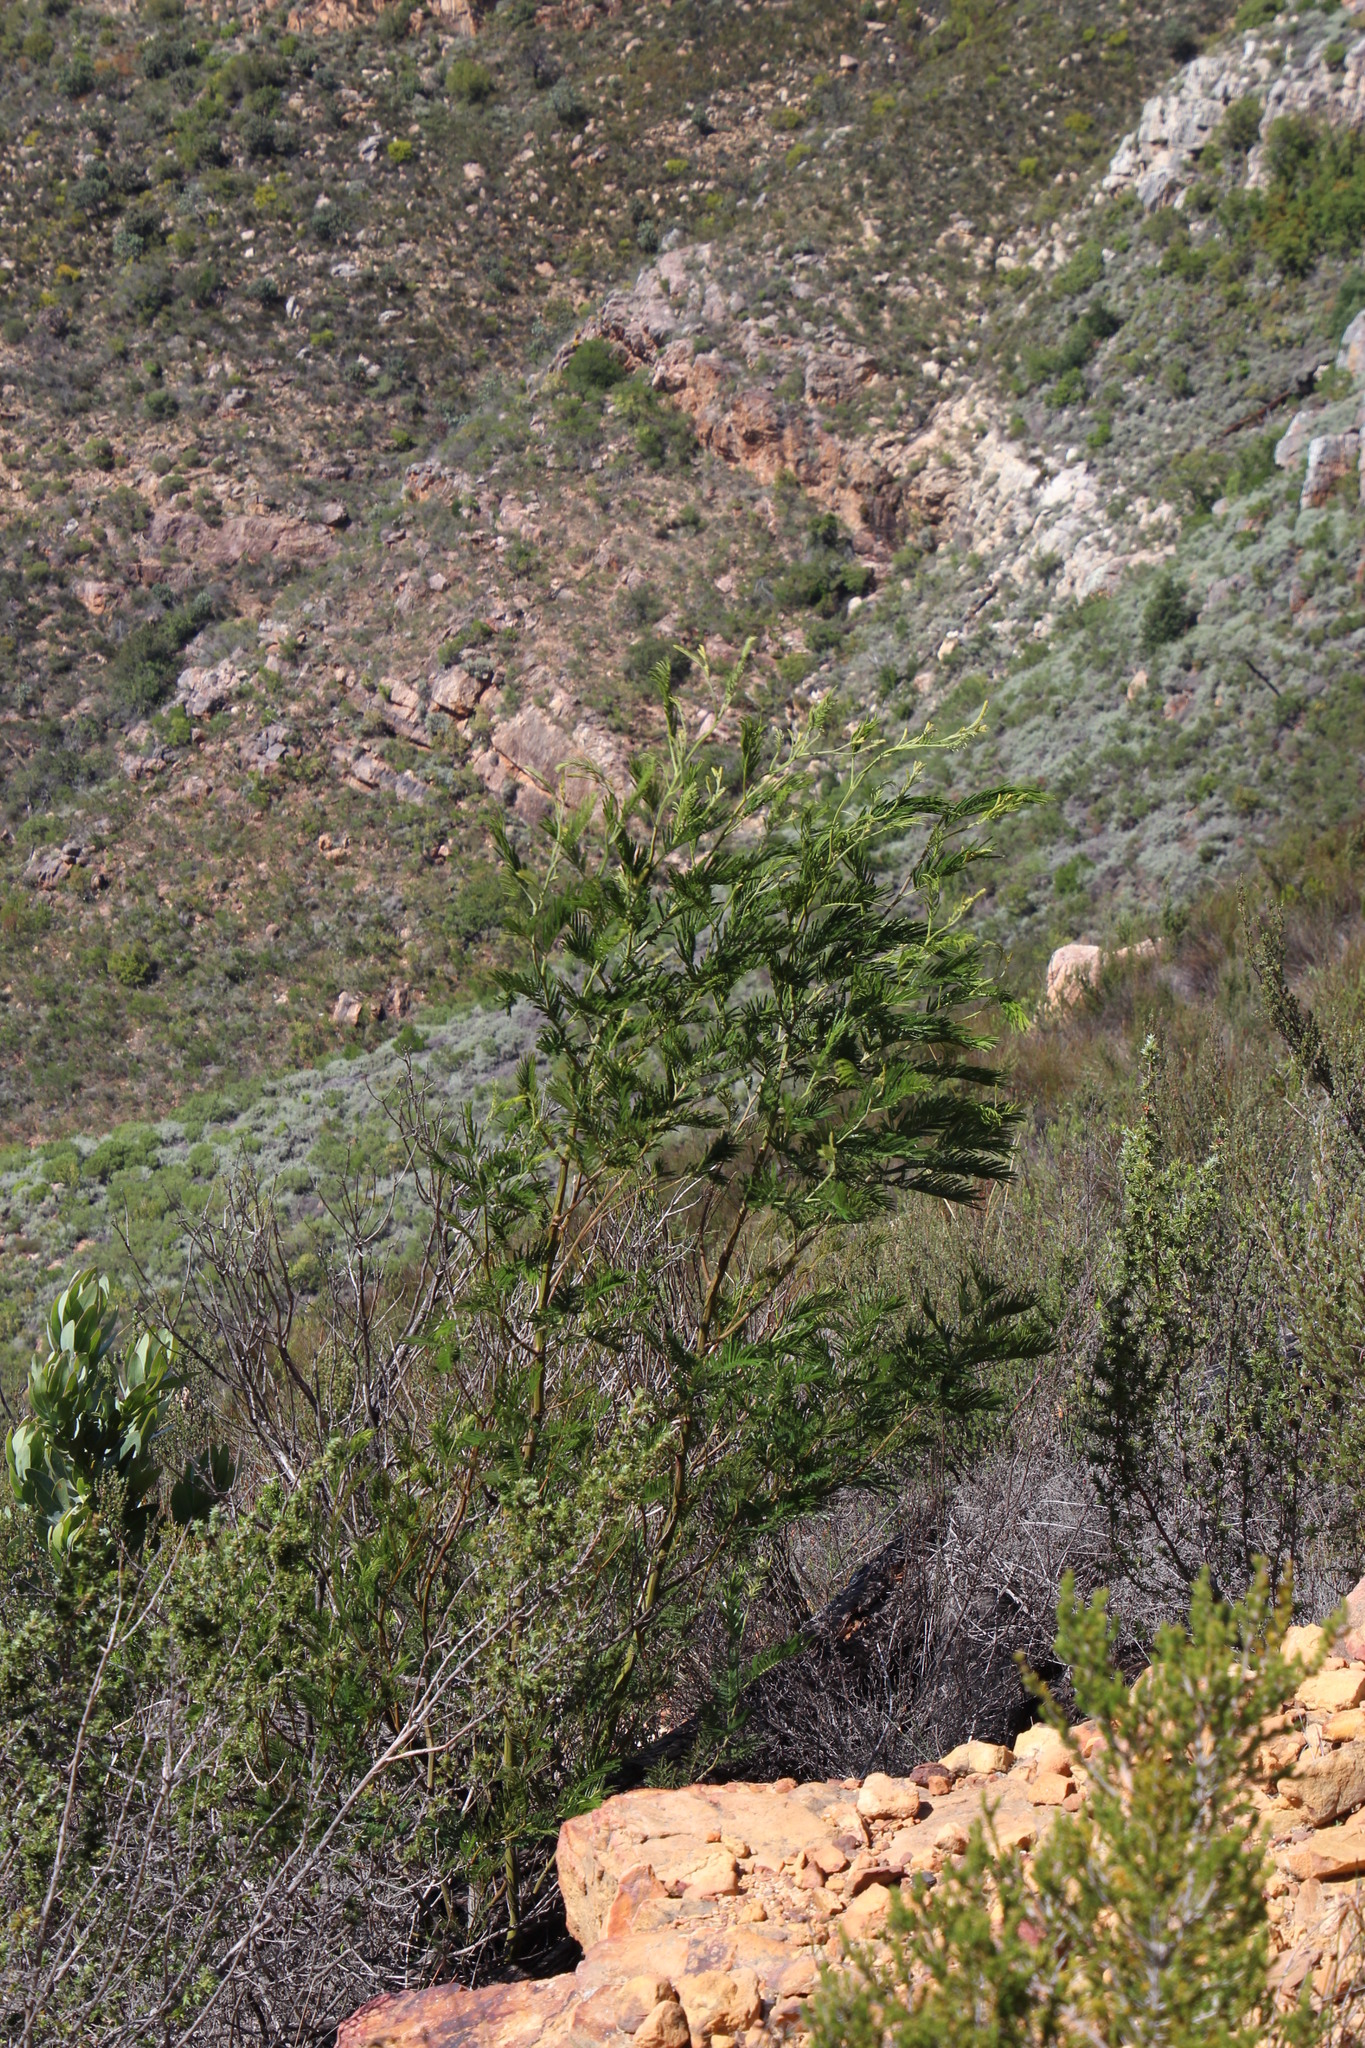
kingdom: Plantae
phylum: Tracheophyta
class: Magnoliopsida
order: Fabales
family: Fabaceae
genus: Acacia
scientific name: Acacia mearnsii
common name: Black wattle
